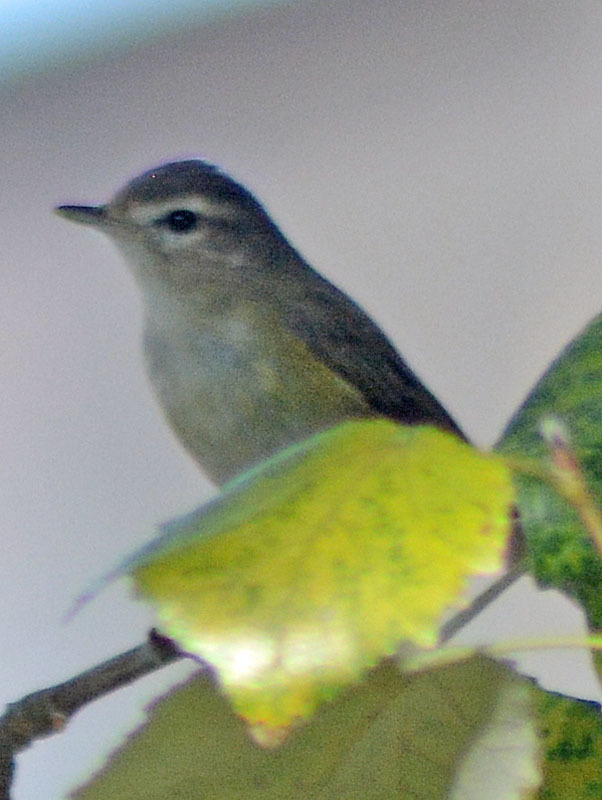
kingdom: Animalia
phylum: Chordata
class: Aves
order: Passeriformes
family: Vireonidae
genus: Vireo
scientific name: Vireo gilvus
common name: Warbling vireo
